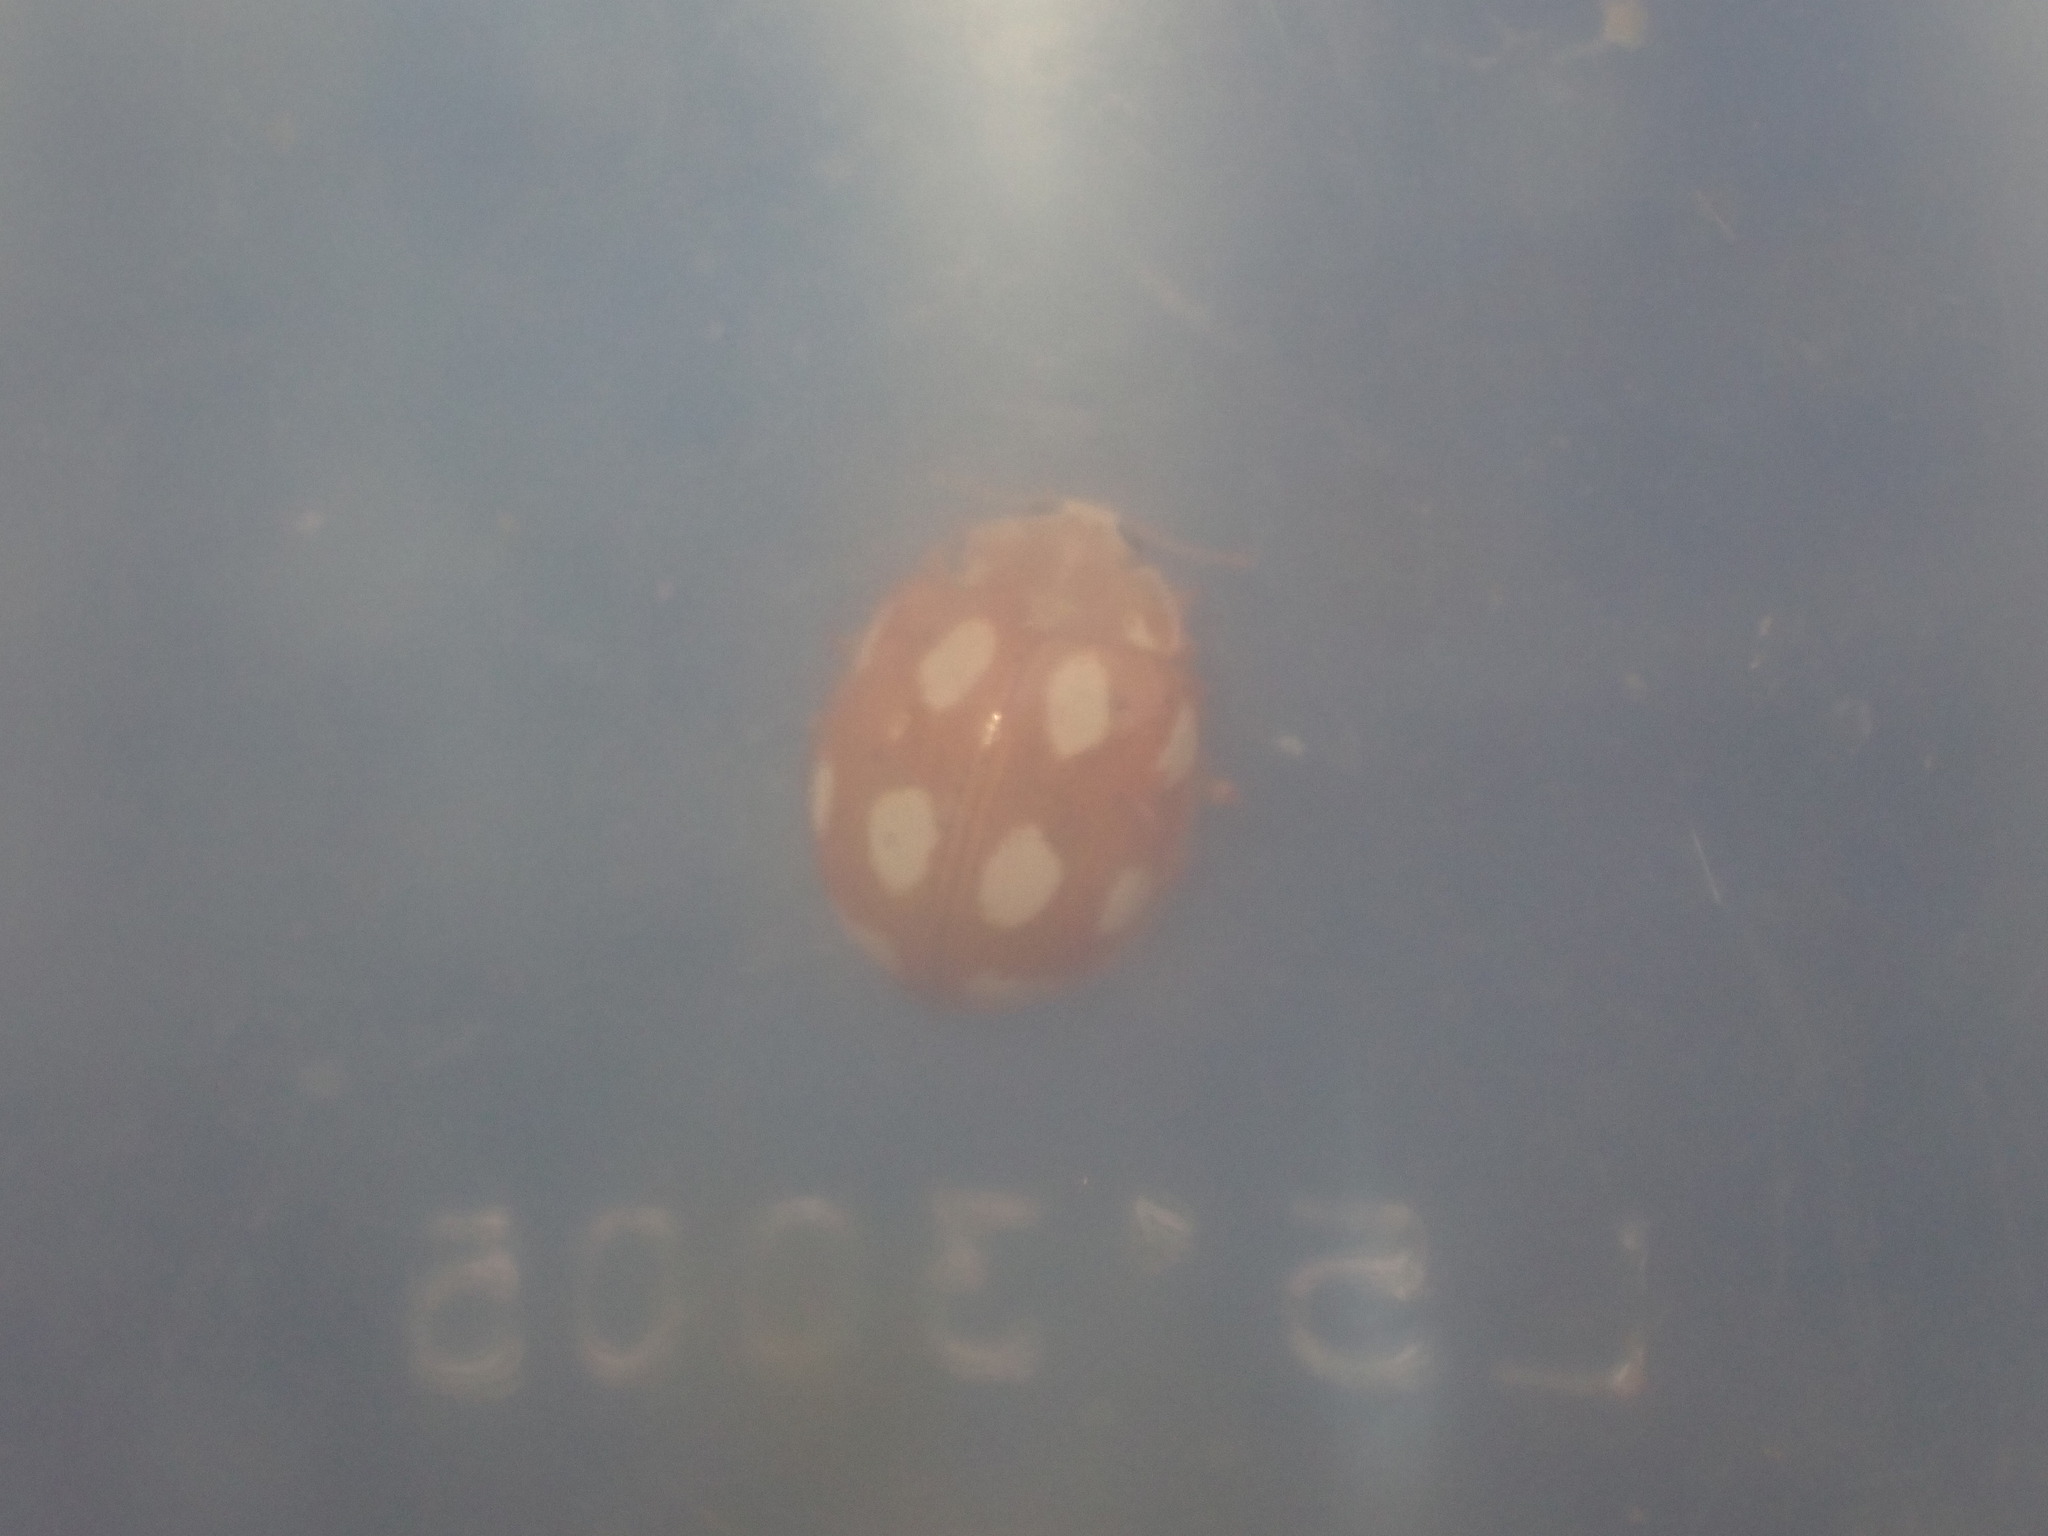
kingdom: Animalia
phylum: Arthropoda
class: Insecta
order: Coleoptera
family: Coccinellidae
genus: Calvia
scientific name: Calvia decemguttata
